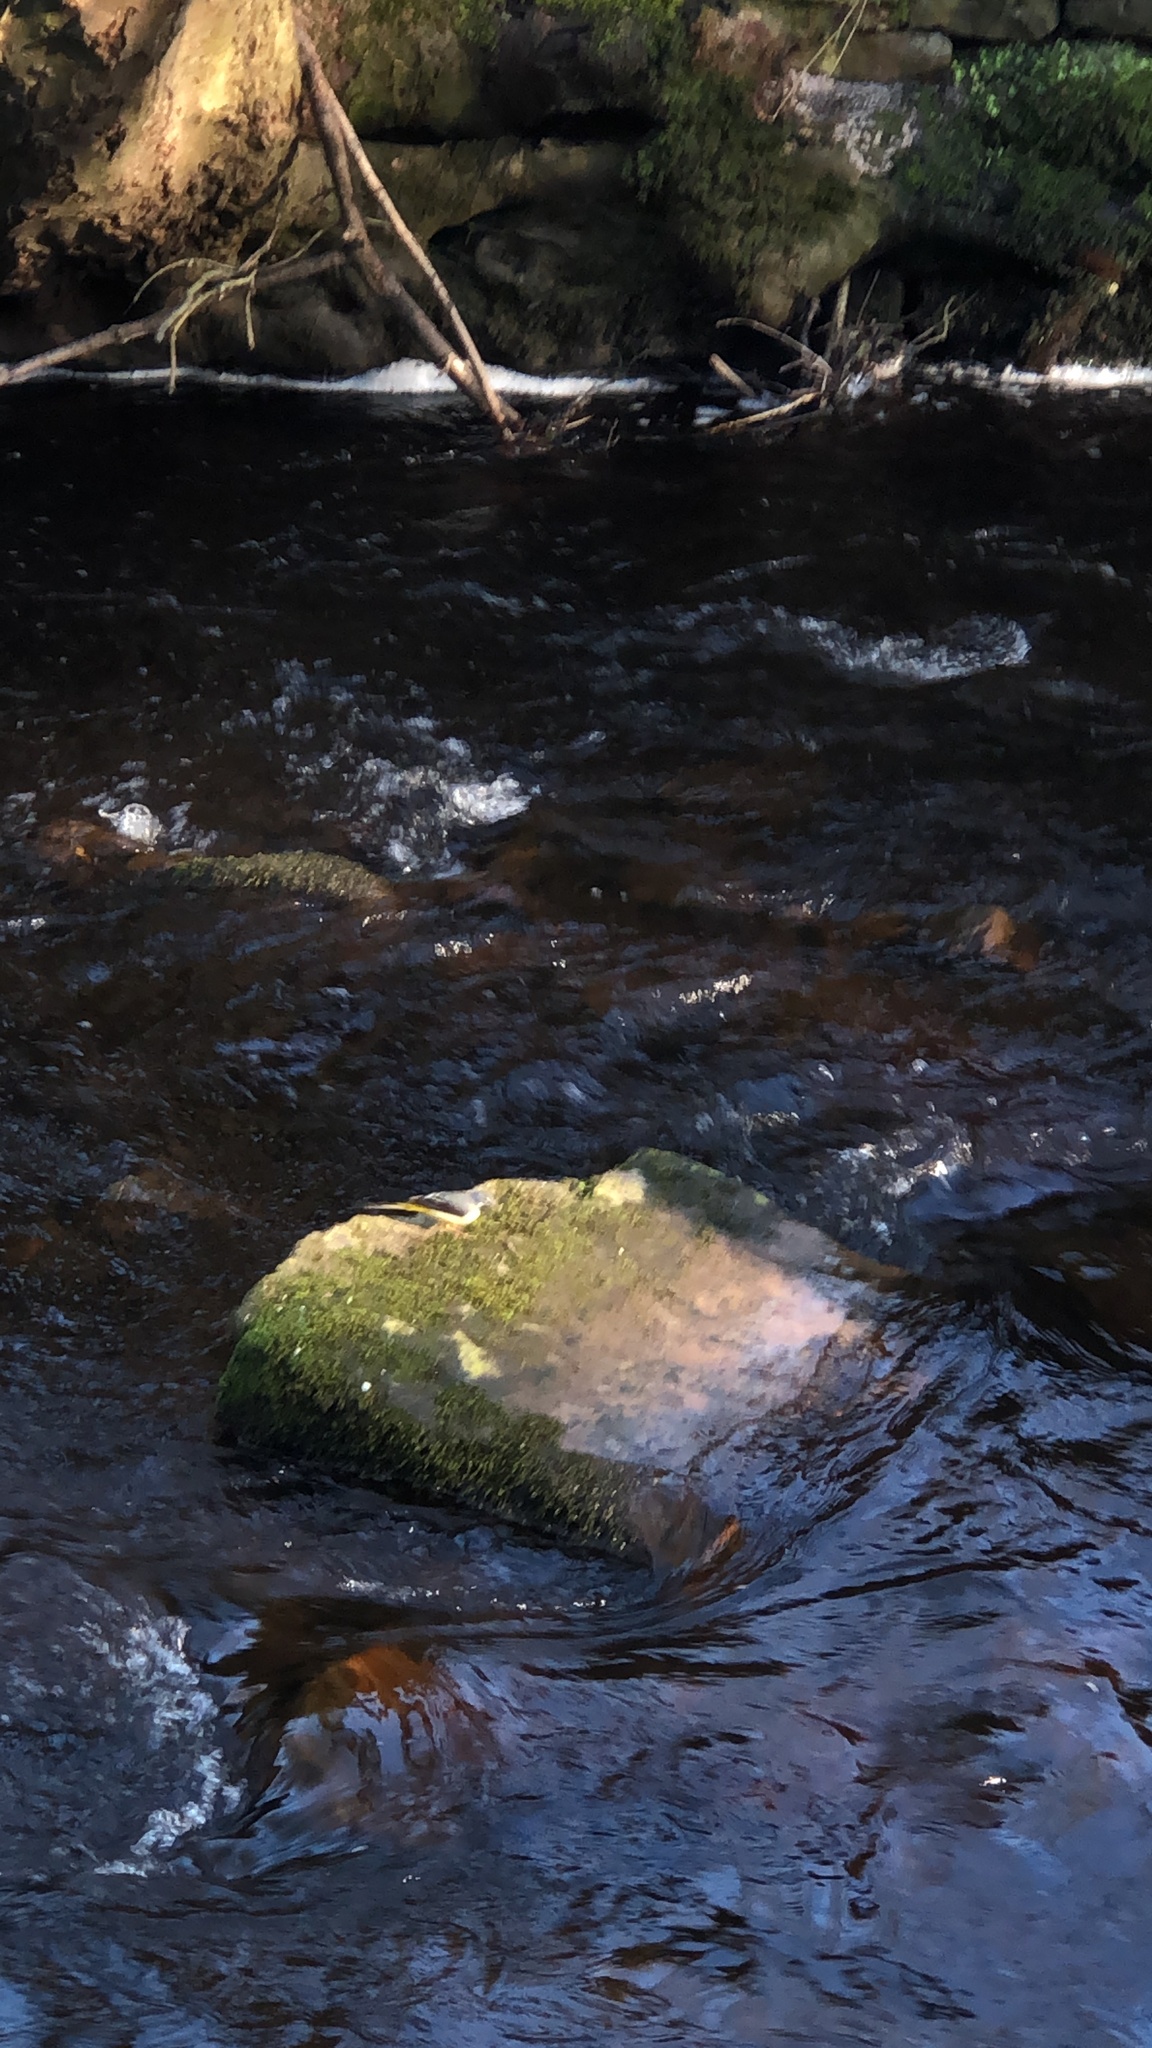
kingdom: Animalia
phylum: Chordata
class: Aves
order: Passeriformes
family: Motacillidae
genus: Motacilla
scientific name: Motacilla cinerea
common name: Grey wagtail
